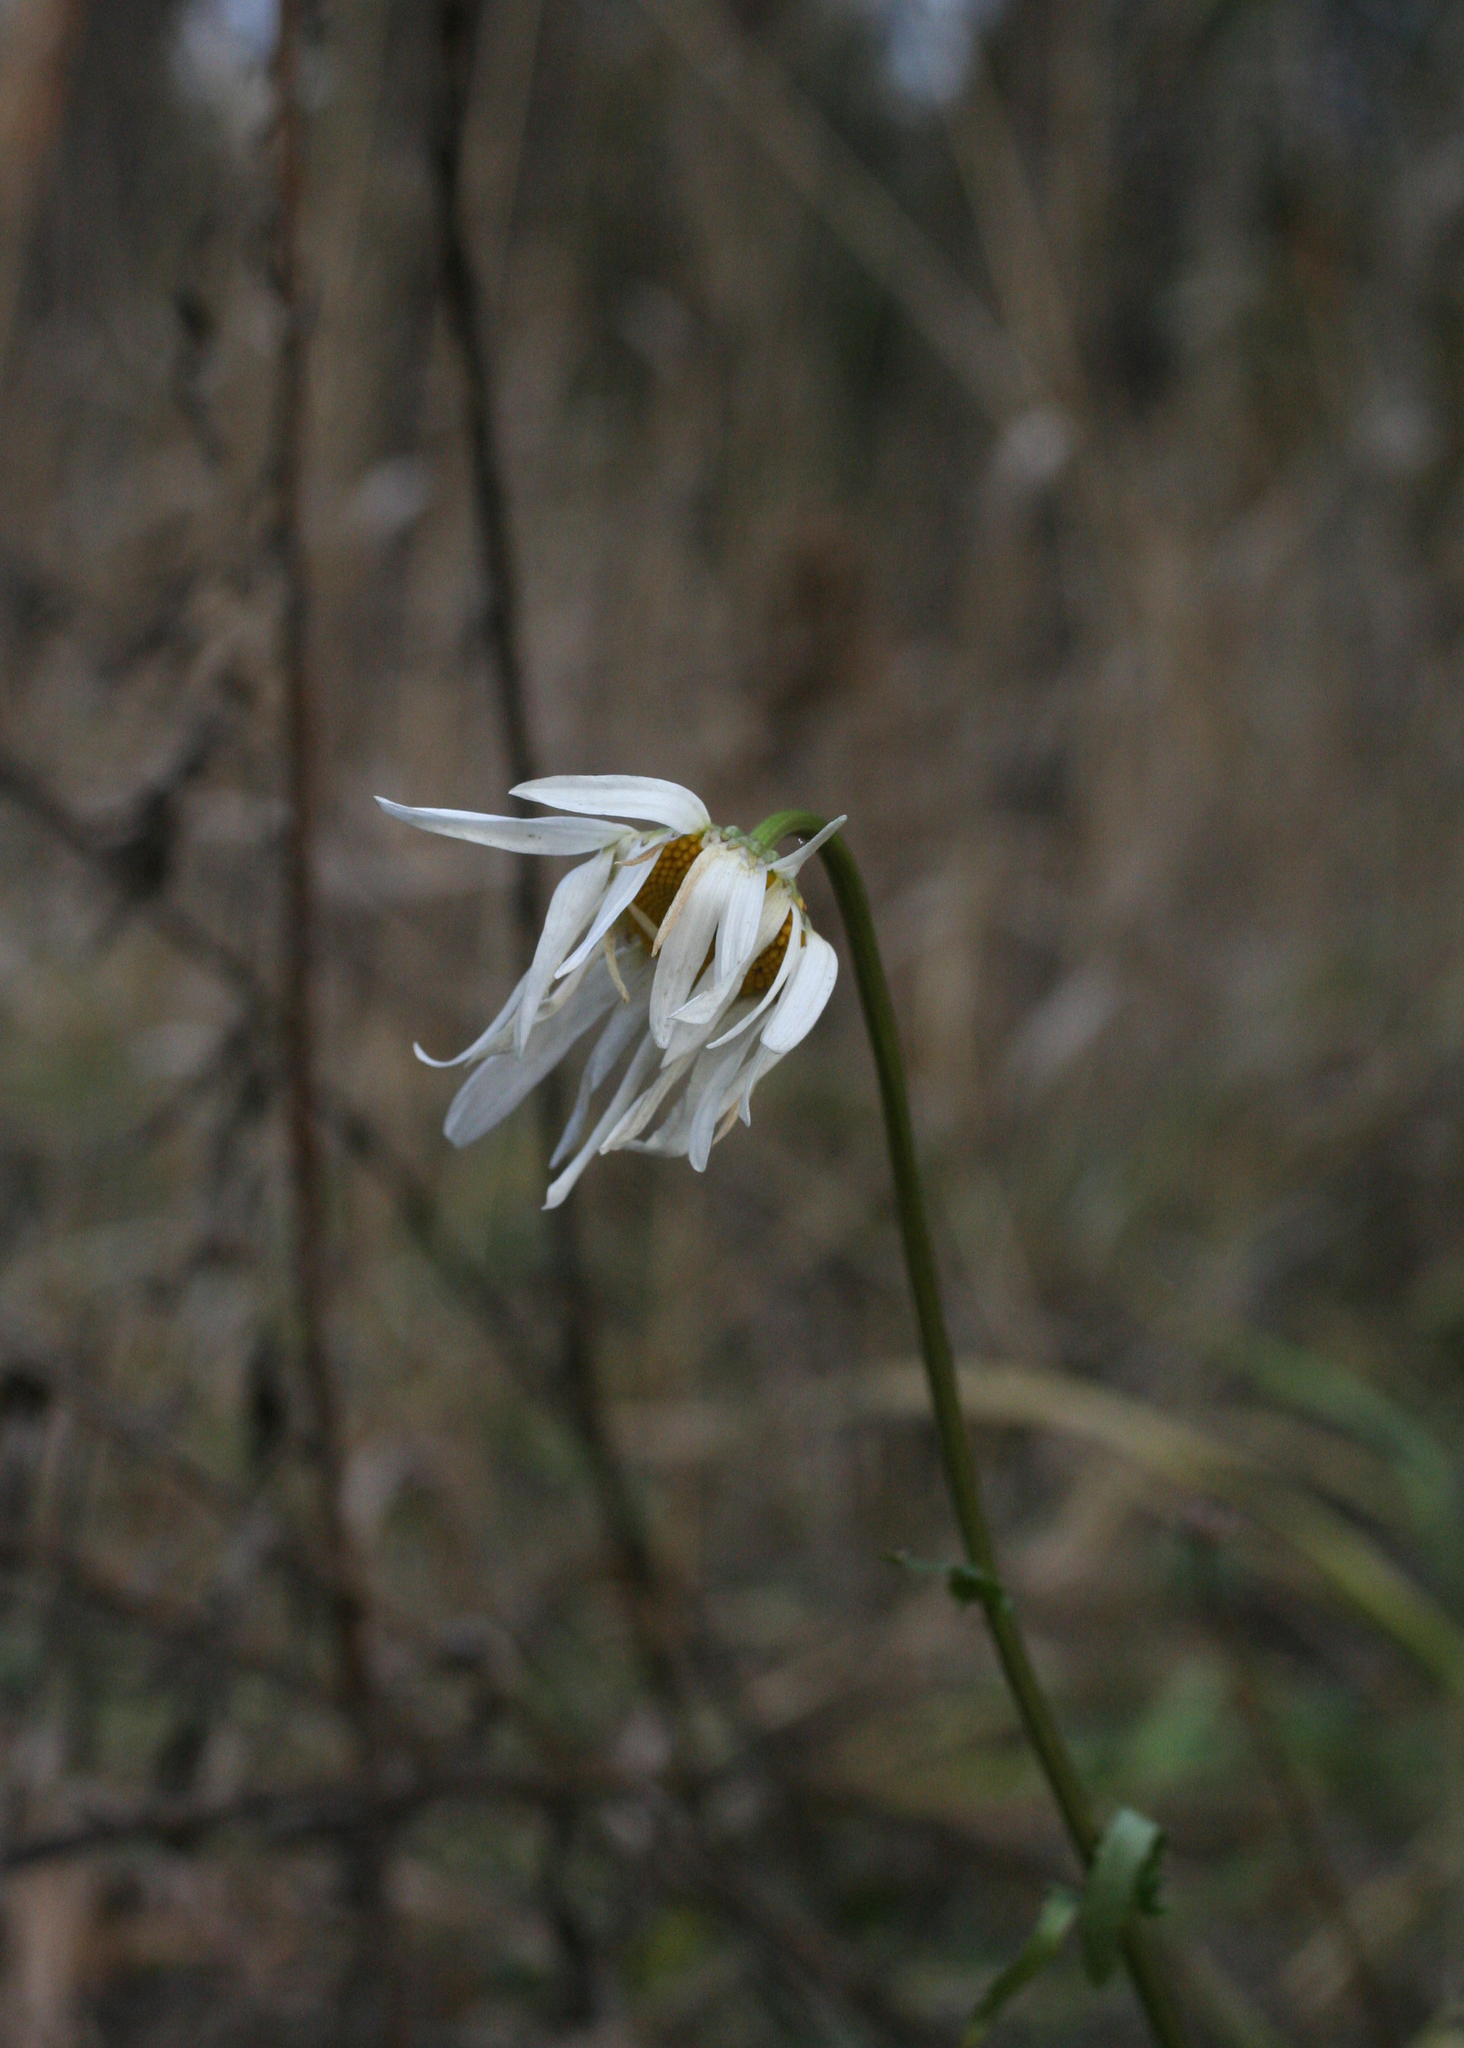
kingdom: Plantae
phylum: Tracheophyta
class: Magnoliopsida
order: Asterales
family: Asteraceae
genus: Leucanthemum
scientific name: Leucanthemum ircutianum
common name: Daisy
